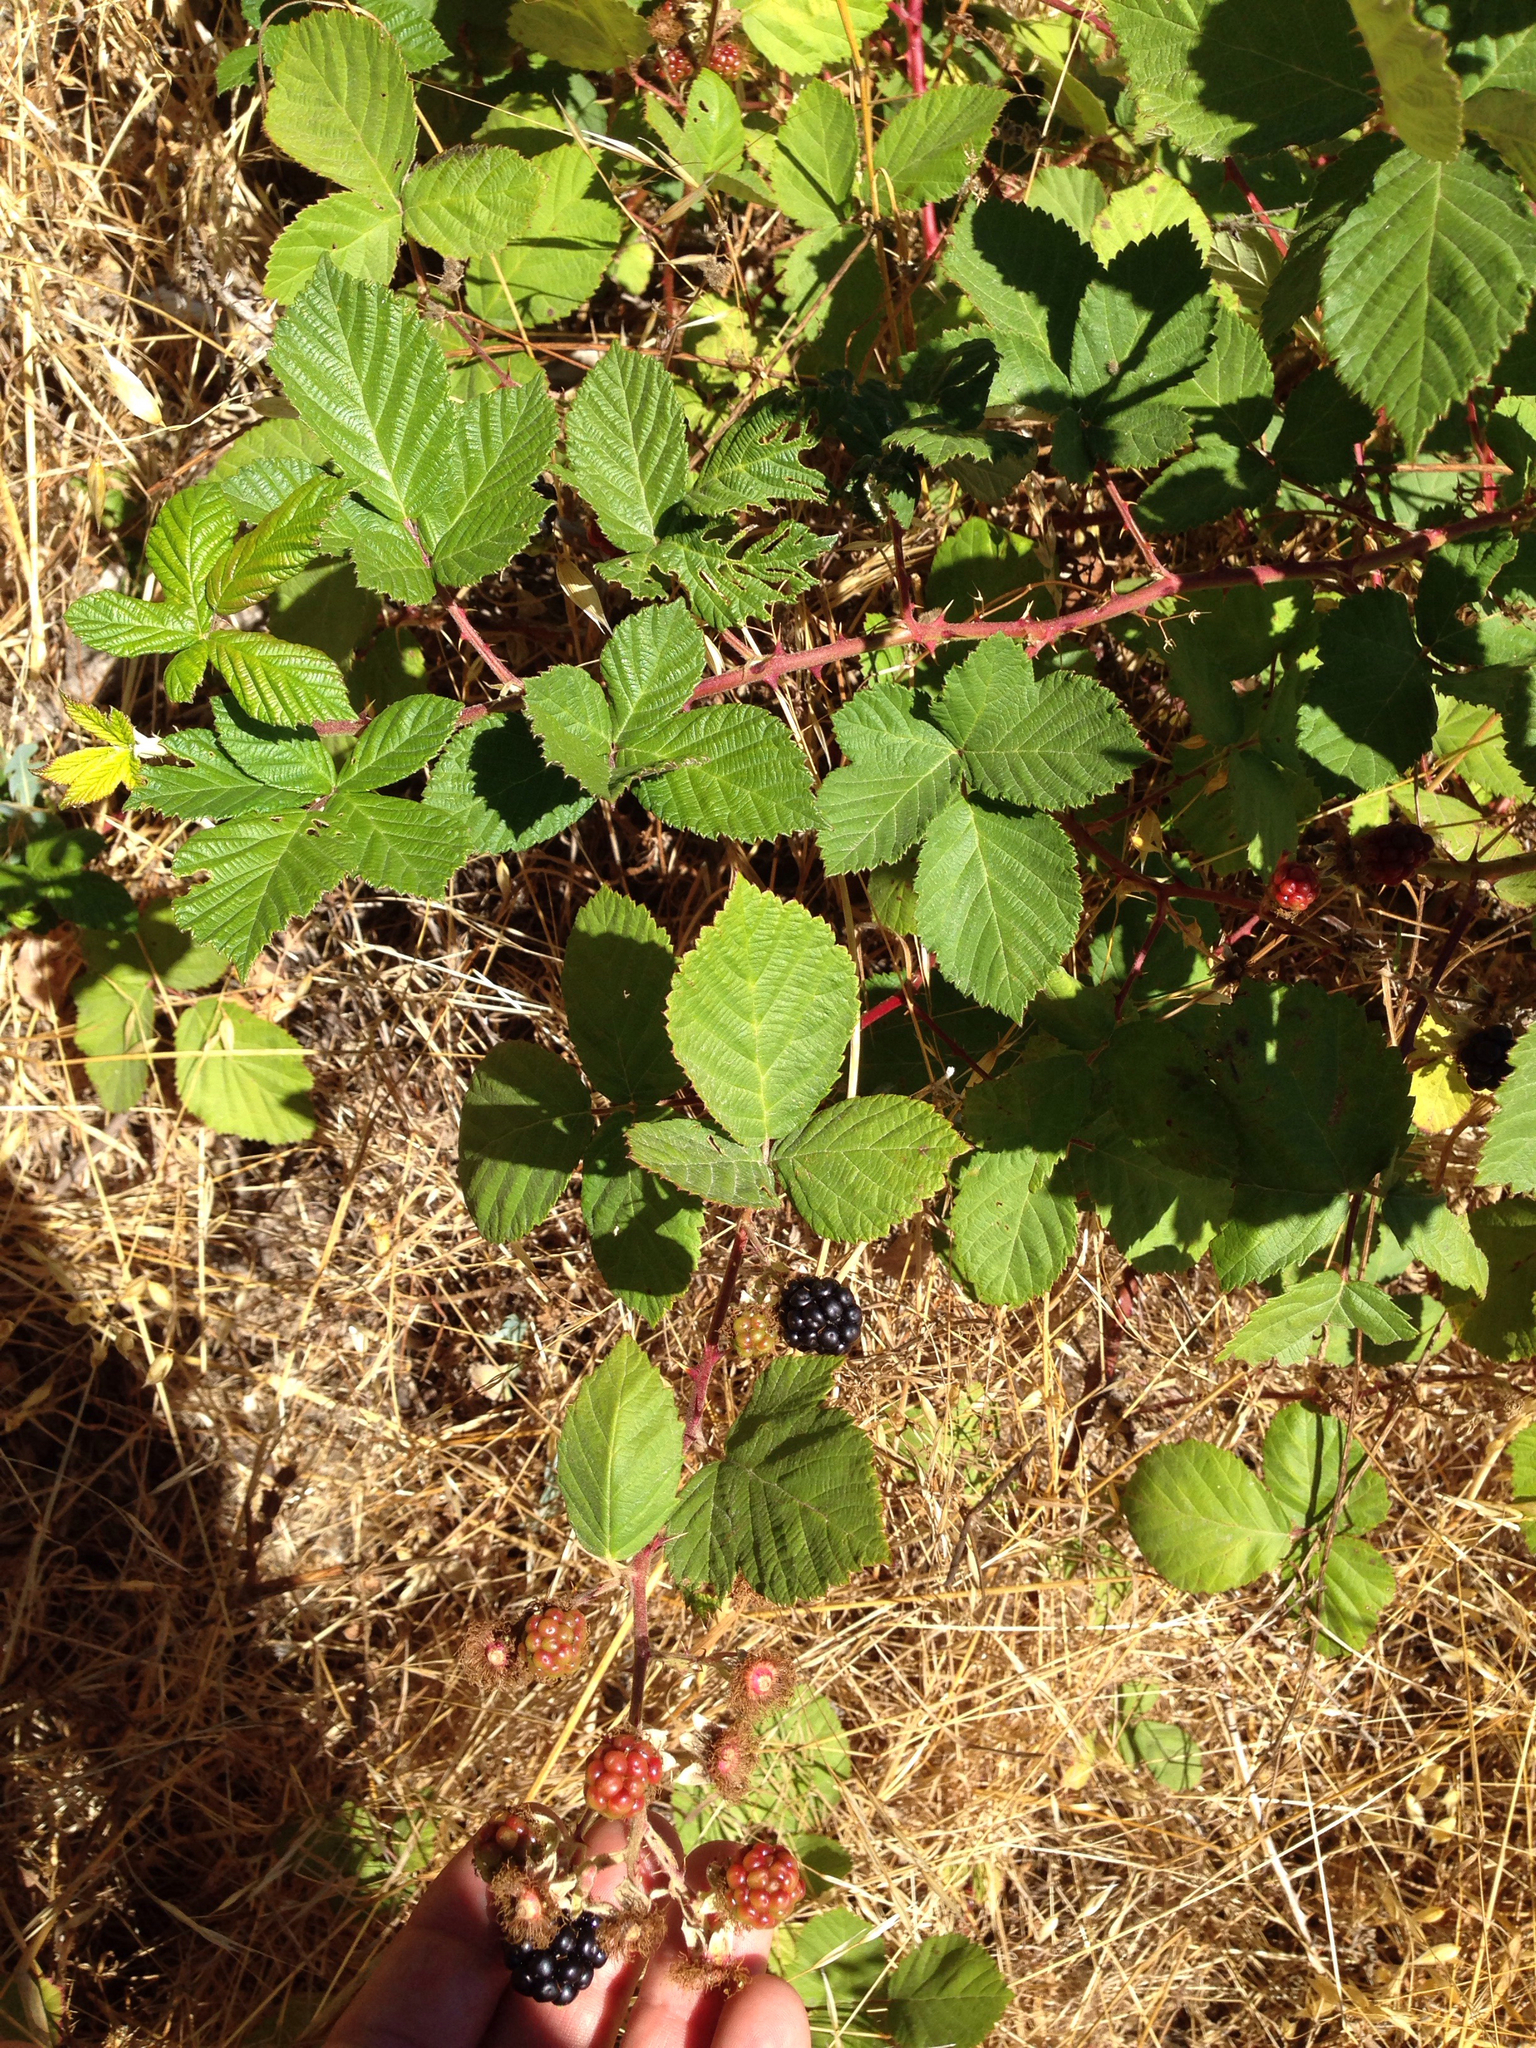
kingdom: Plantae
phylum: Tracheophyta
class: Magnoliopsida
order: Rosales
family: Rosaceae
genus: Rubus
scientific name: Rubus armeniacus
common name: Himalayan blackberry
